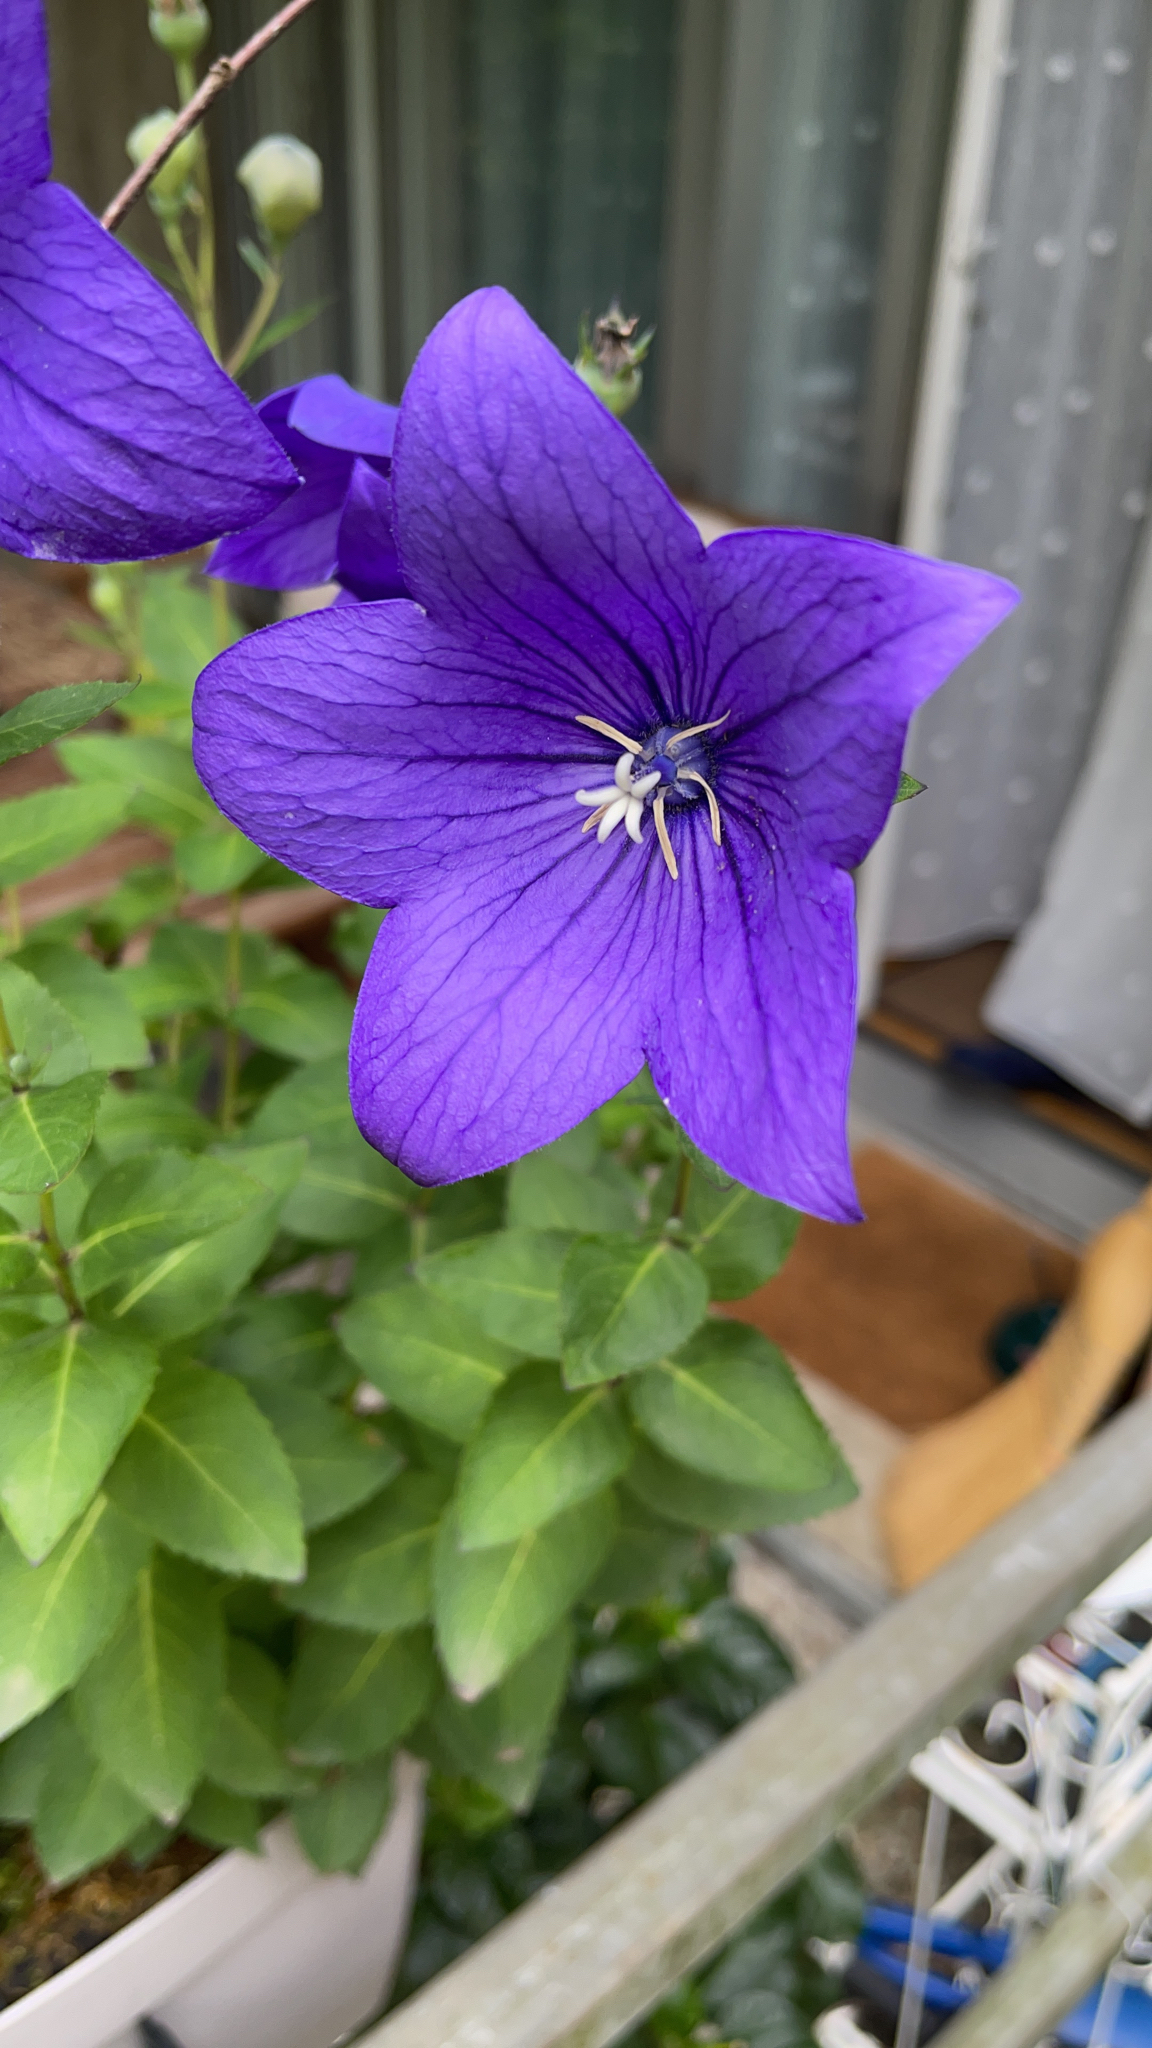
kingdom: Plantae
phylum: Tracheophyta
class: Magnoliopsida
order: Asterales
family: Campanulaceae
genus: Platycodon
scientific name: Platycodon grandiflorus
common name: Balloon-flower
